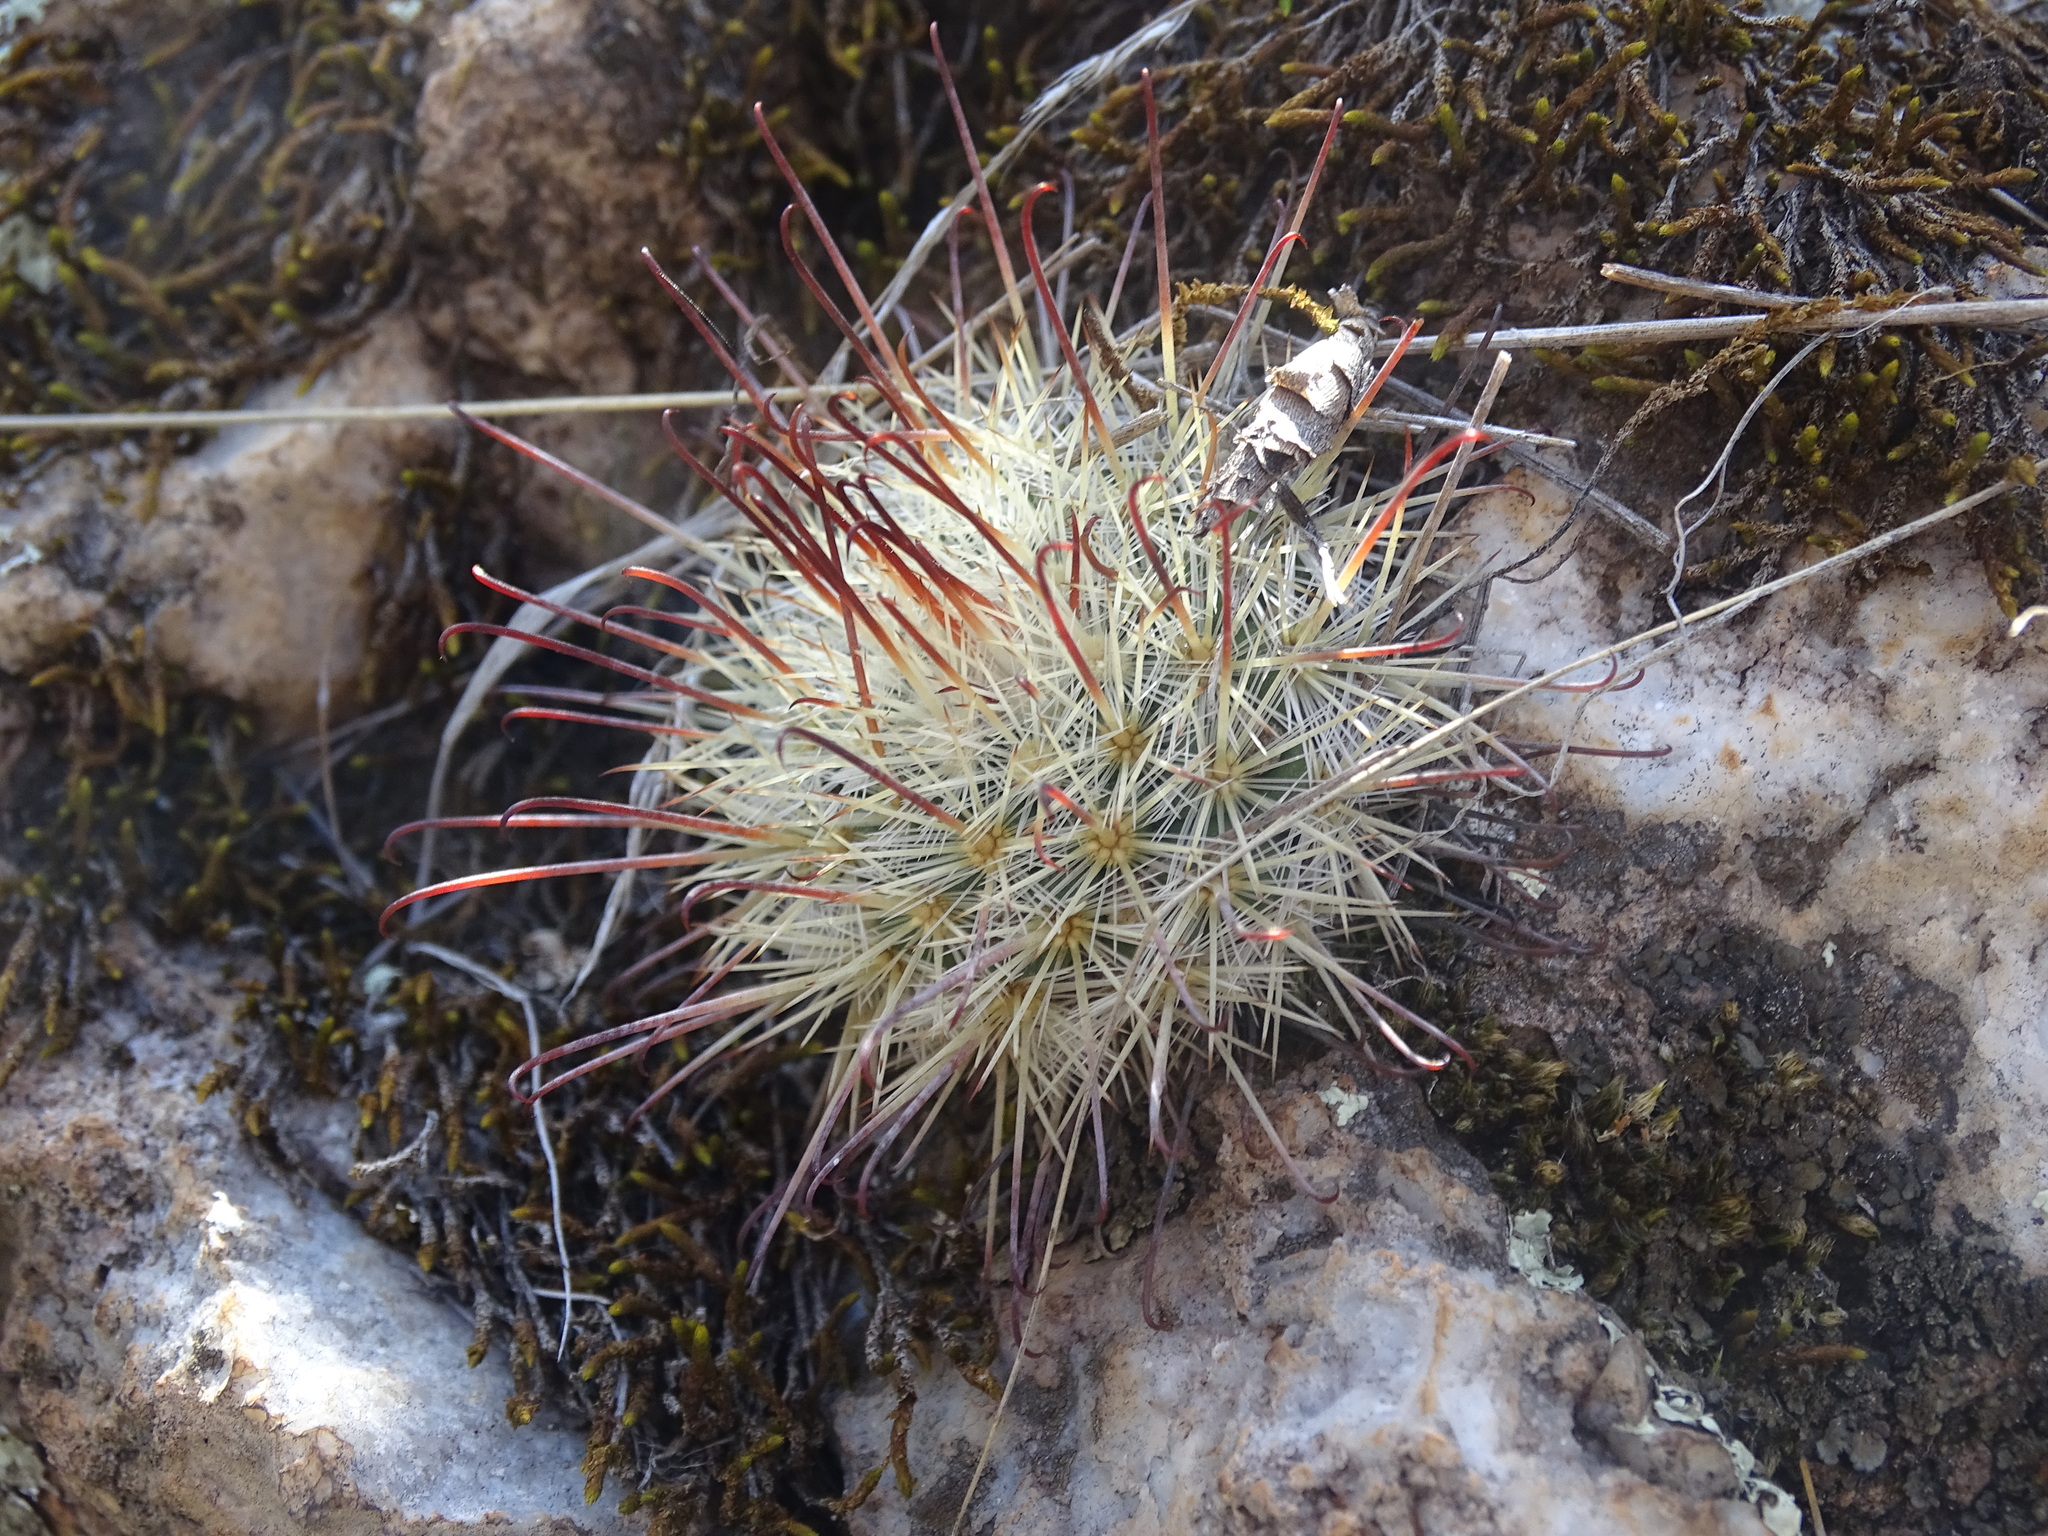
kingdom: Plantae
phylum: Tracheophyta
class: Magnoliopsida
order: Caryophyllales
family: Cactaceae
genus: Mammillaria
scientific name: Mammillaria moelleriana
